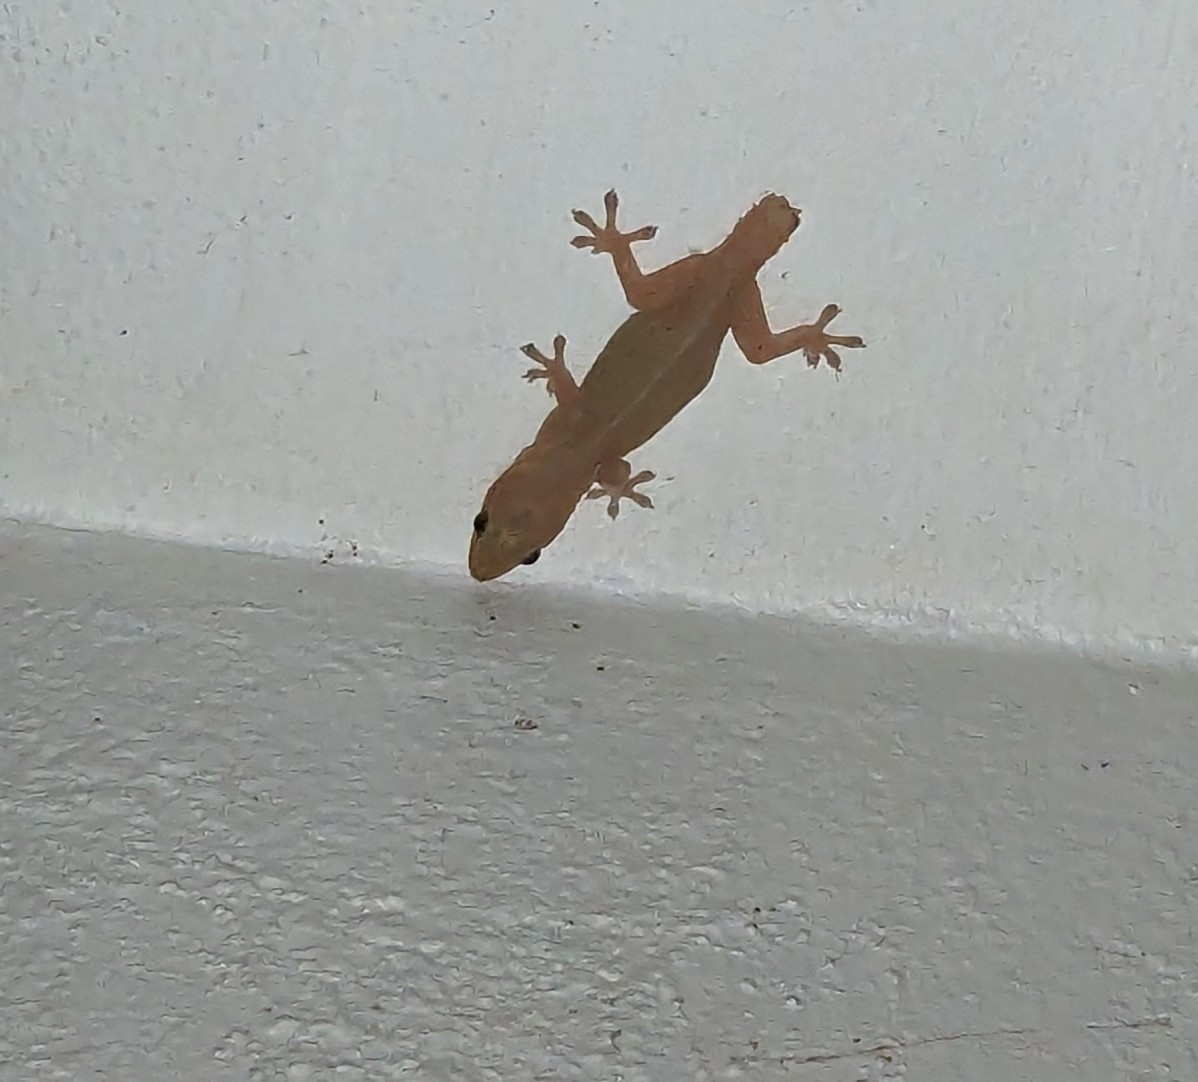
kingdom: Animalia
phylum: Chordata
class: Squamata
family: Gekkonidae
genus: Hemidactylus
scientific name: Hemidactylus frenatus
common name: Common house gecko
